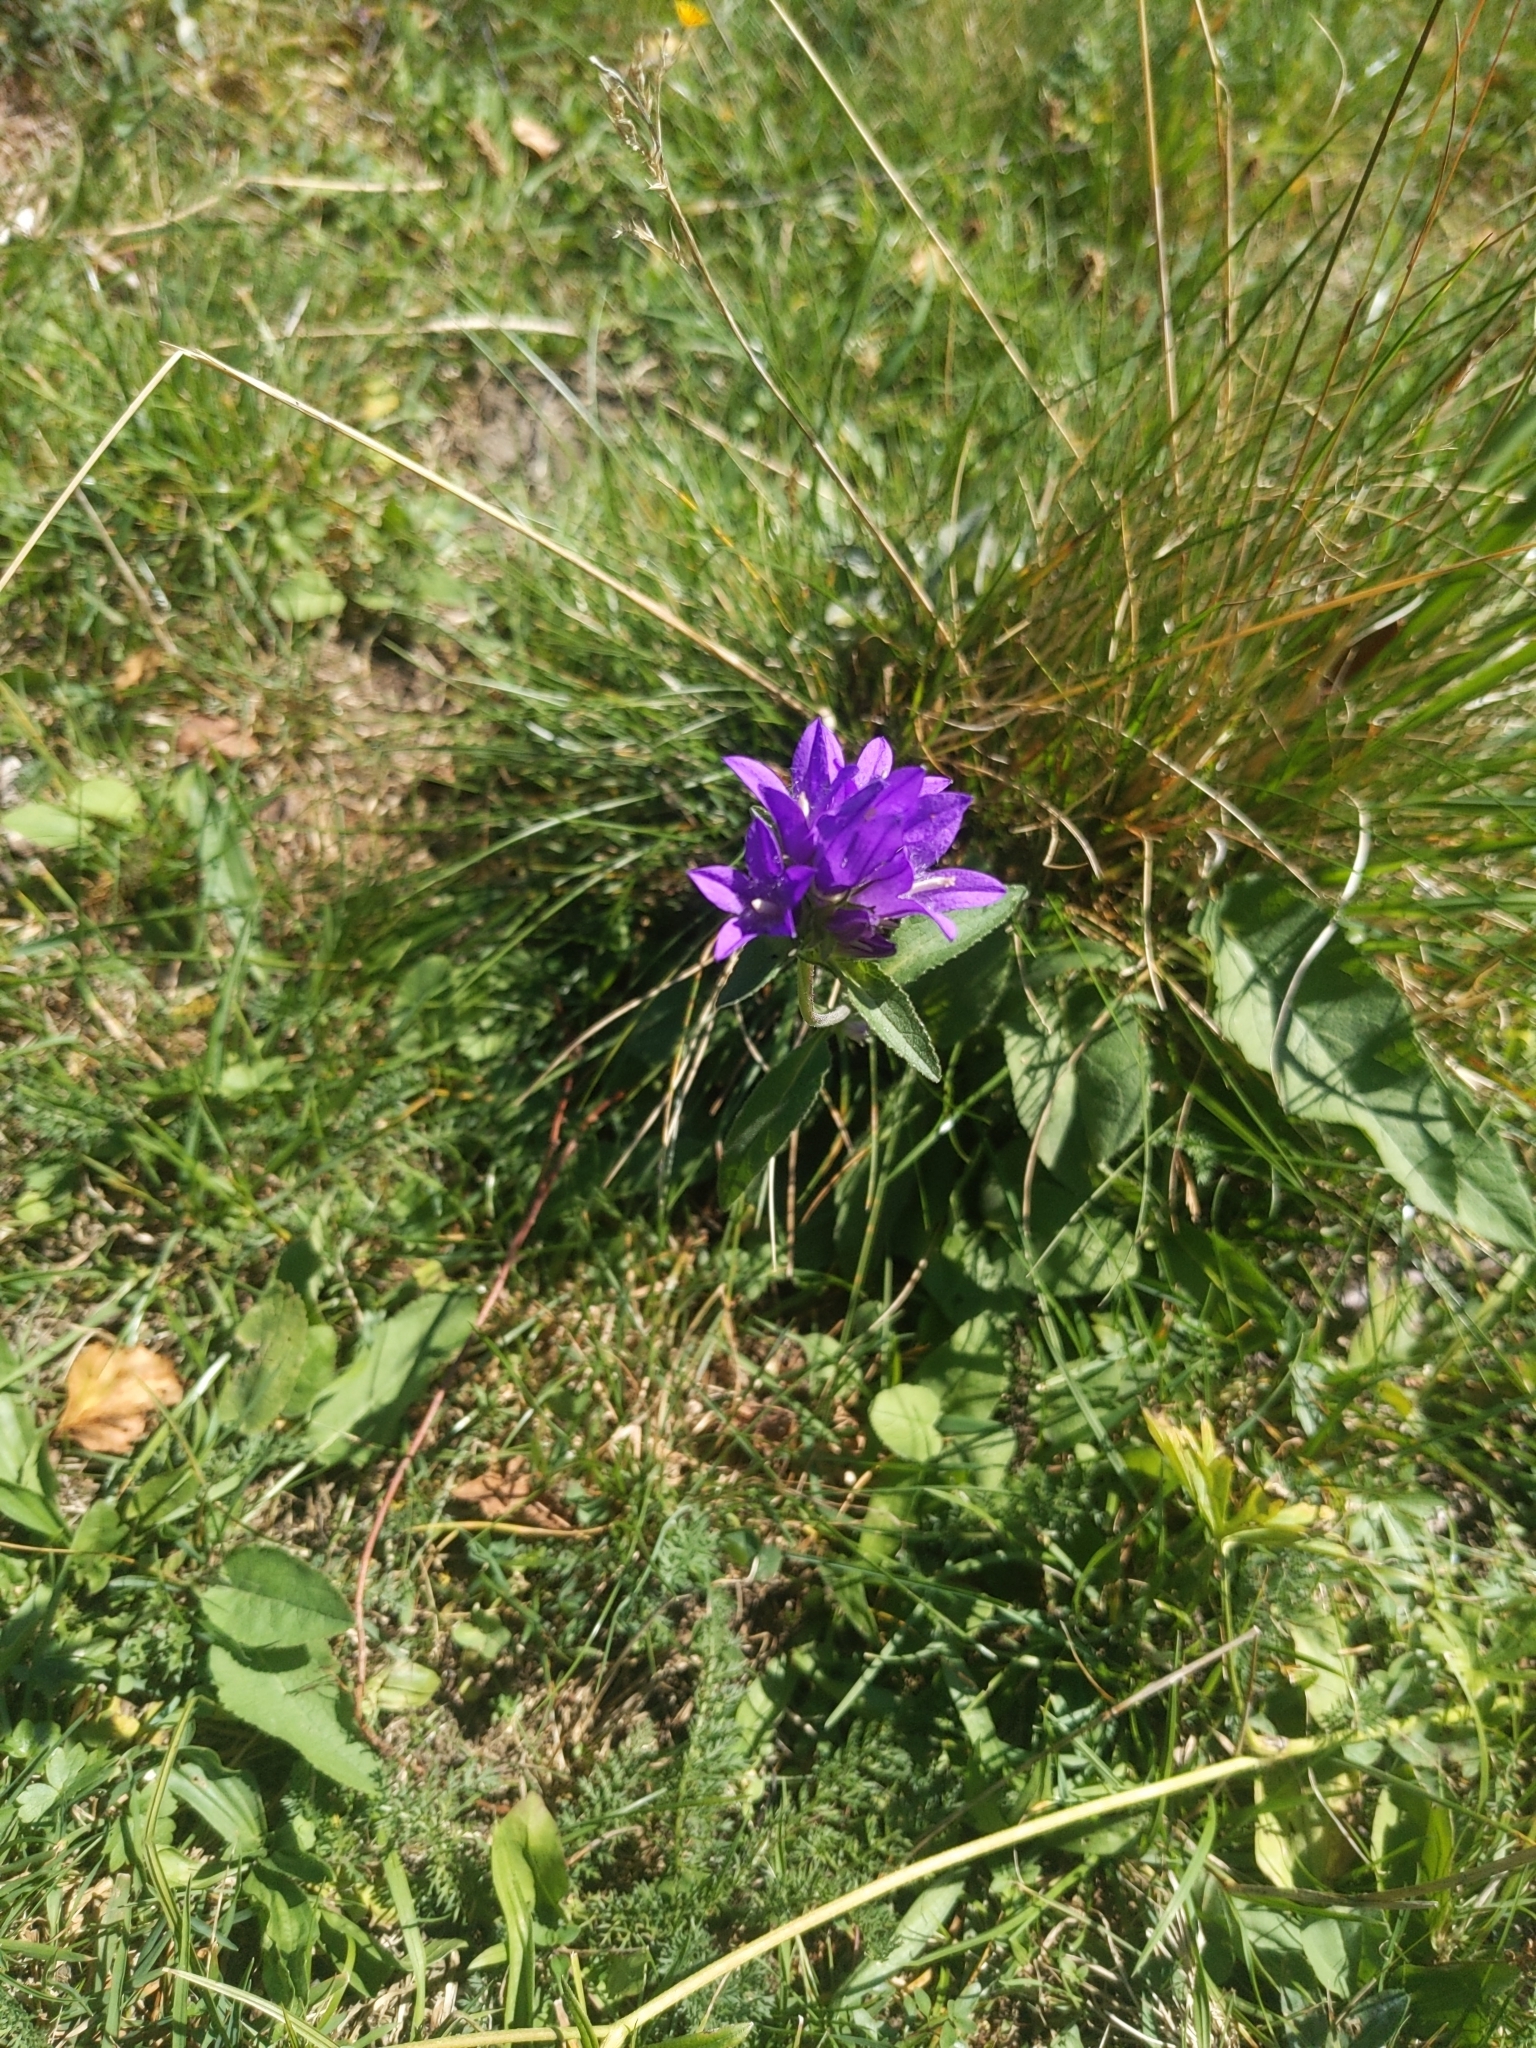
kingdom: Plantae
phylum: Tracheophyta
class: Magnoliopsida
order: Asterales
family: Campanulaceae
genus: Campanula
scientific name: Campanula glomerata
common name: Clustered bellflower
